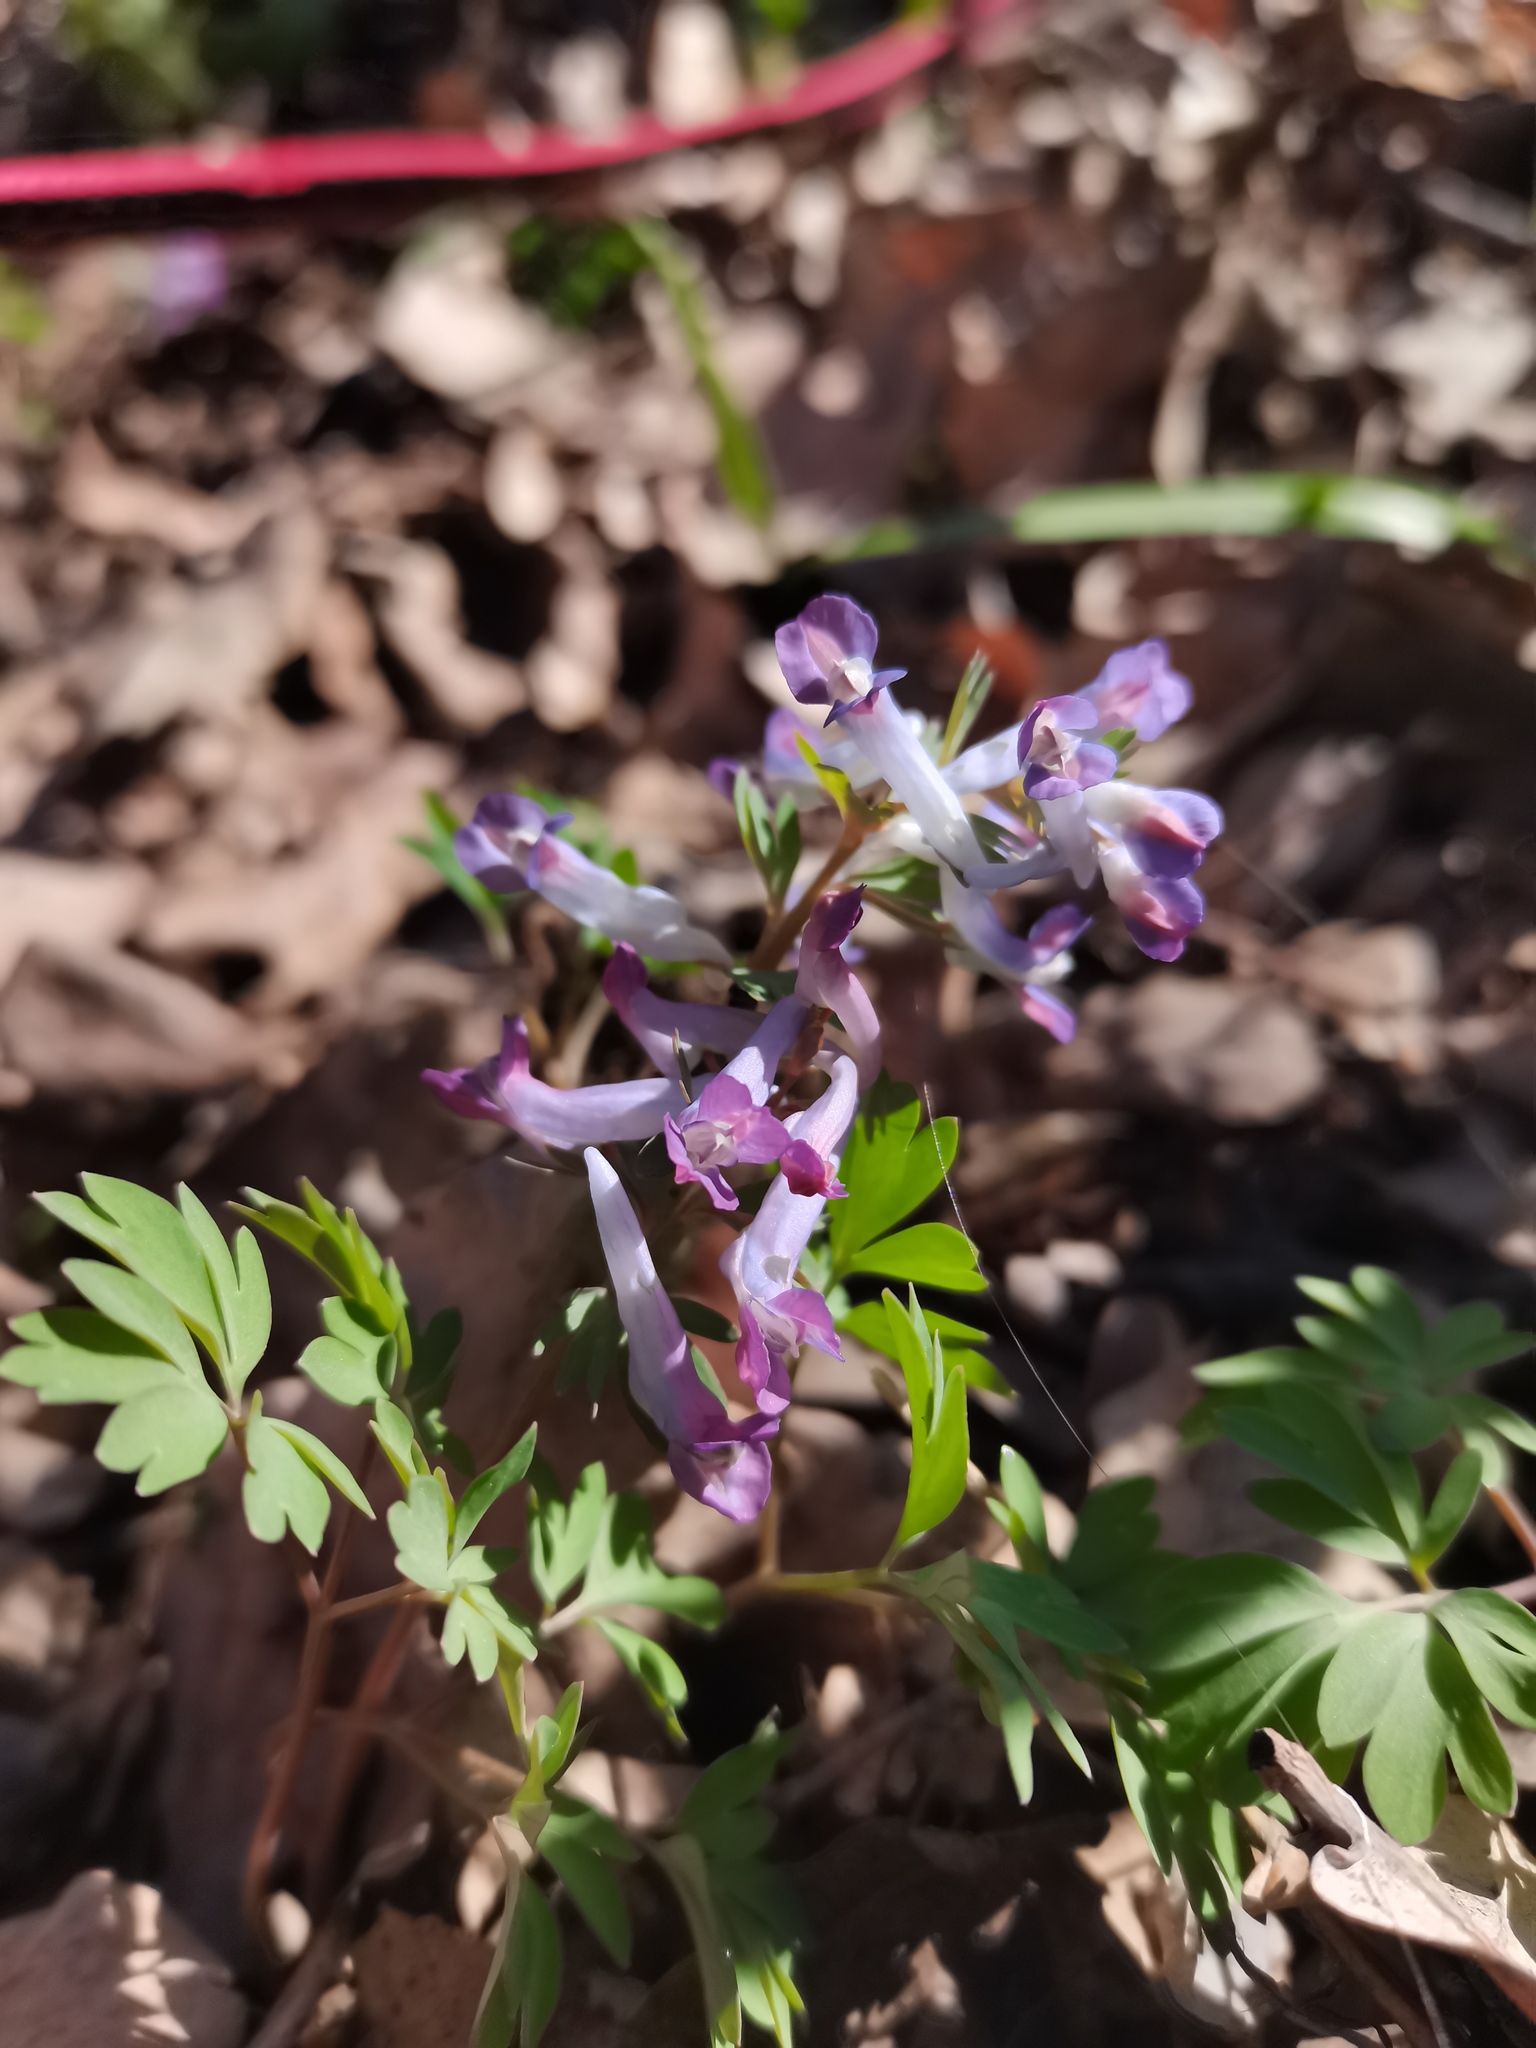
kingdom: Plantae
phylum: Tracheophyta
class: Magnoliopsida
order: Ranunculales
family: Papaveraceae
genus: Corydalis
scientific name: Corydalis solida
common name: Bird-in-a-bush
